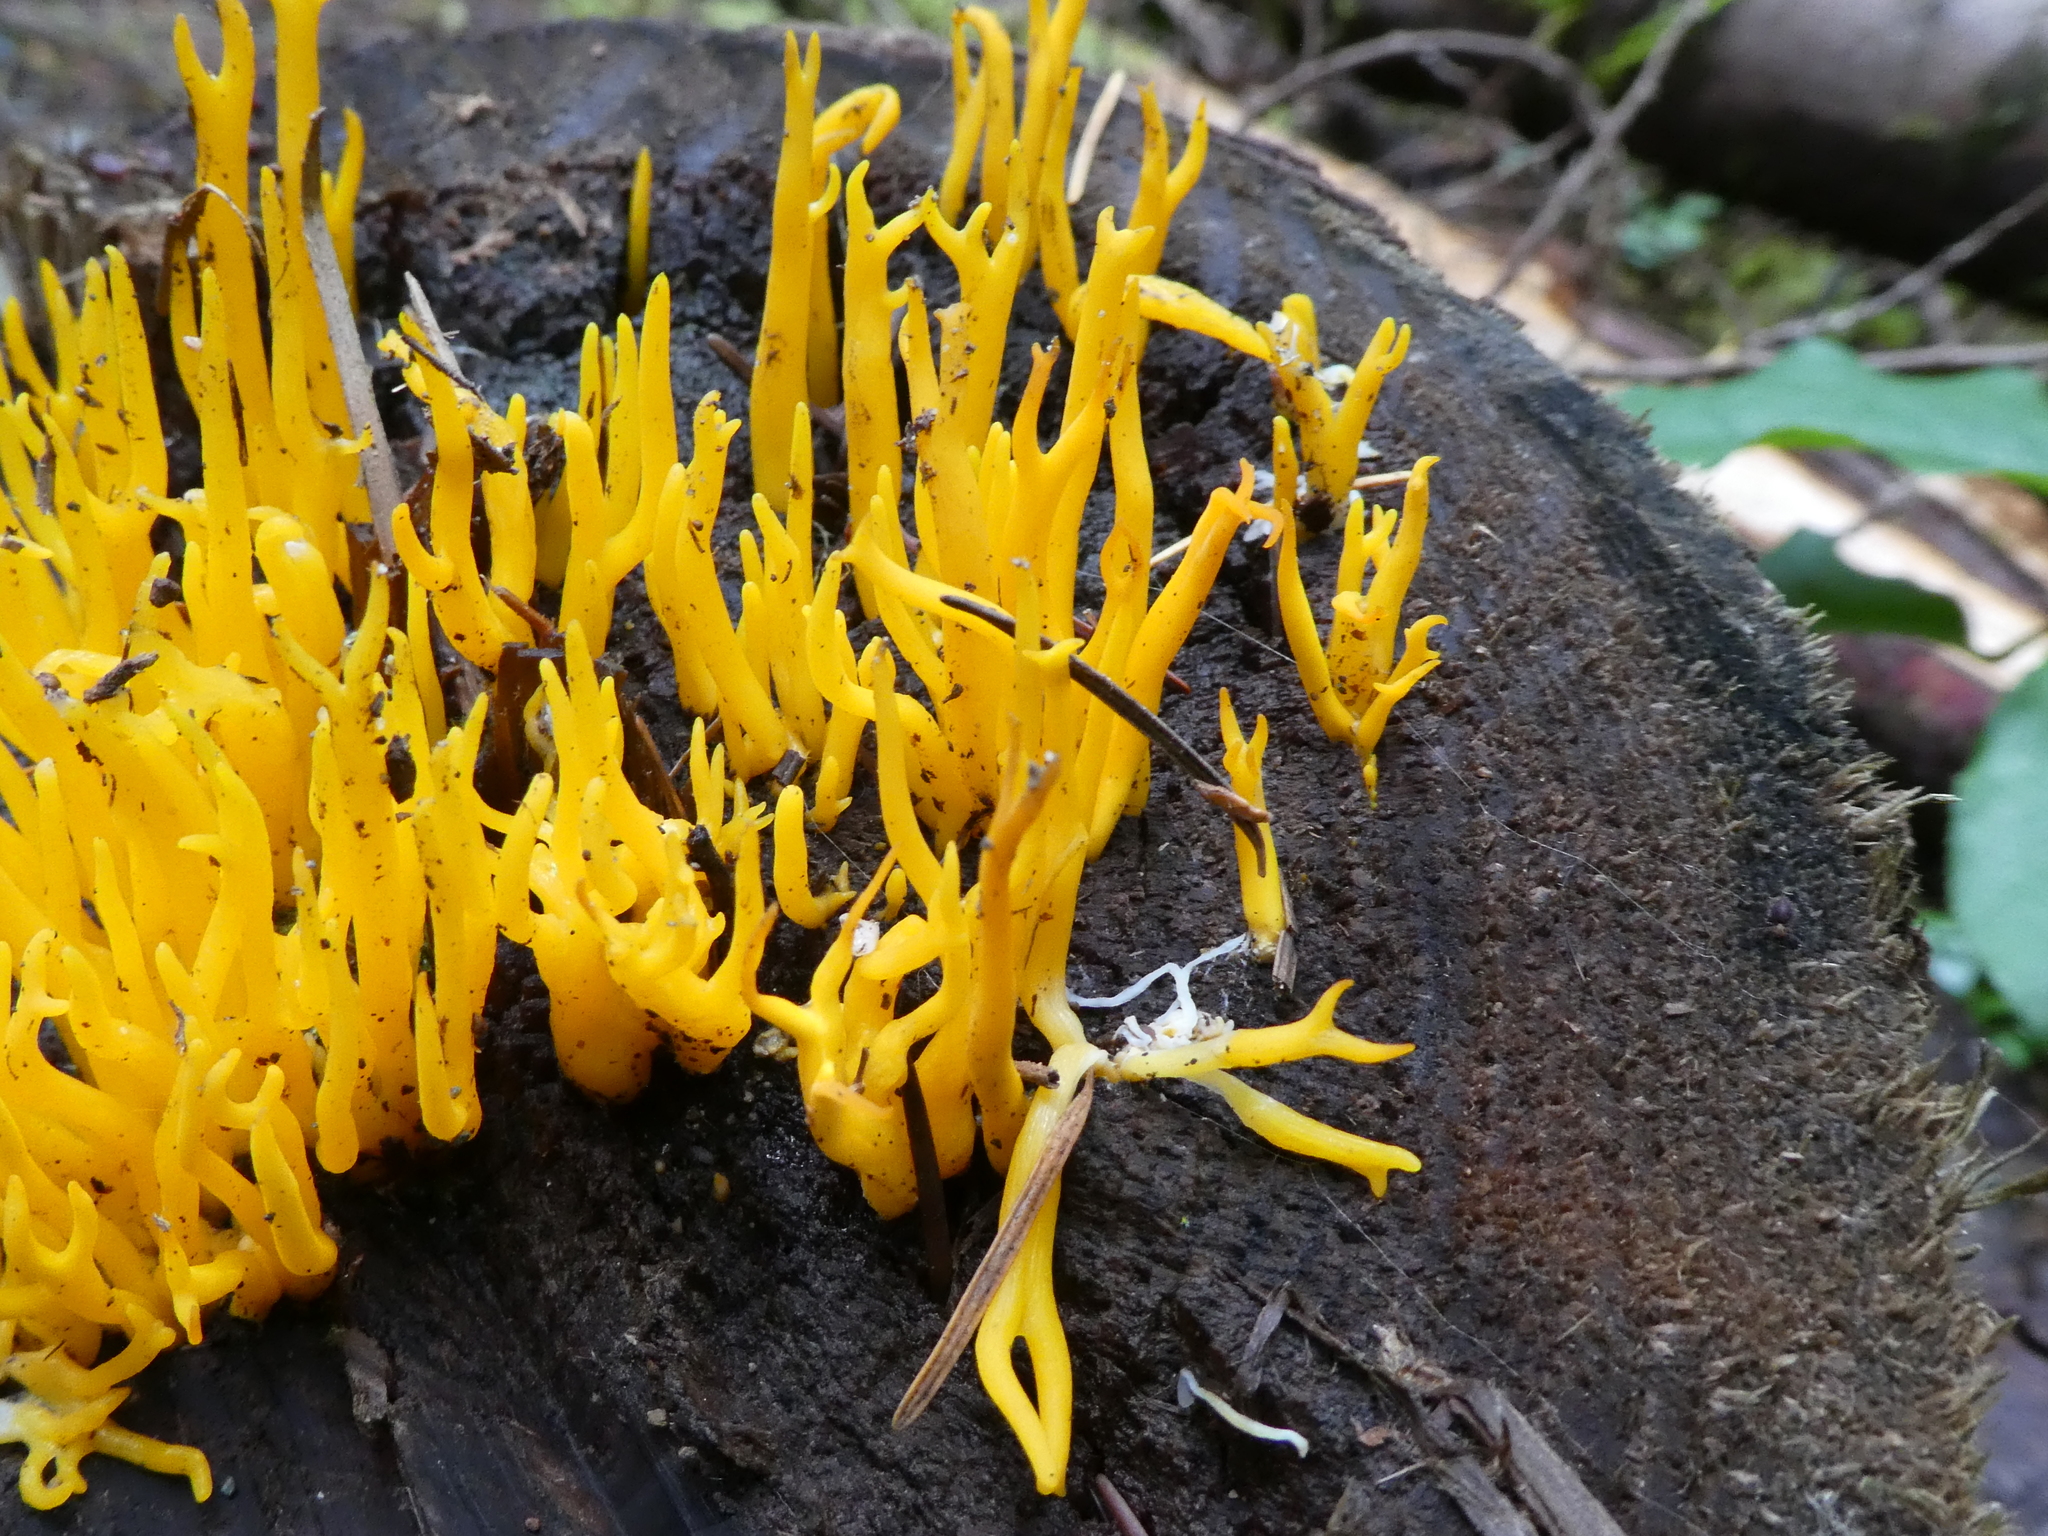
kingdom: Fungi
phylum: Basidiomycota
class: Dacrymycetes
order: Dacrymycetales
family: Dacrymycetaceae
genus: Calocera
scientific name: Calocera viscosa
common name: Yellow stagshorn
